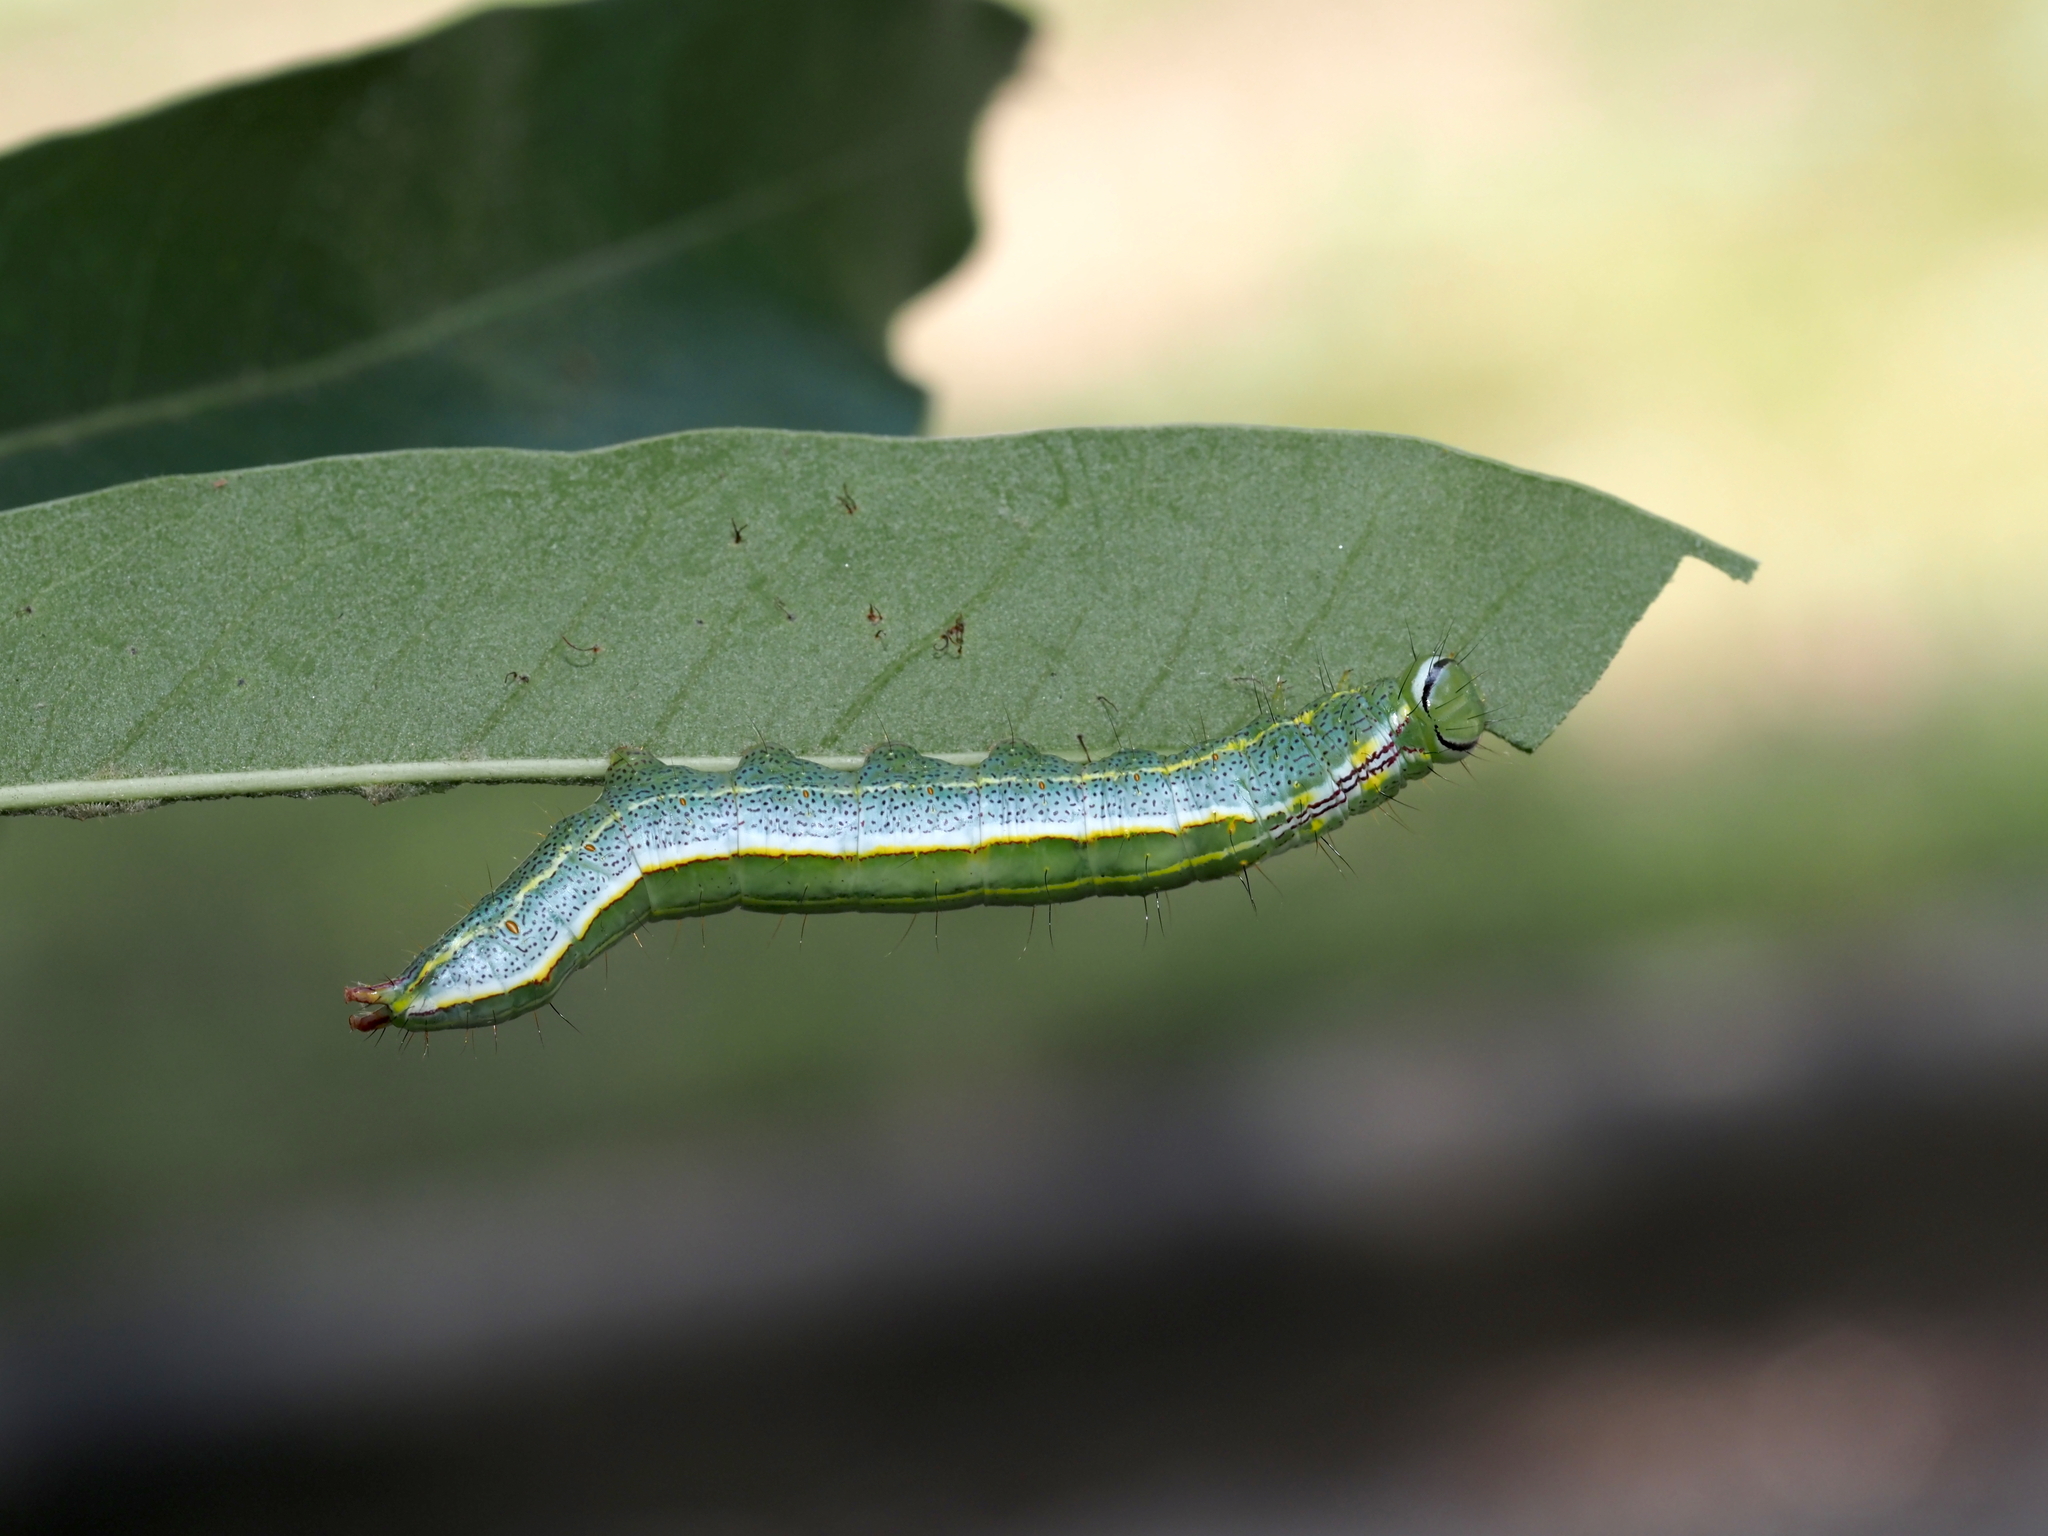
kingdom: Animalia
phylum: Arthropoda
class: Insecta
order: Lepidoptera
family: Notodontidae
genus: Lochmaeus
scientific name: Lochmaeus manteo
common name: Variable oakleaf caterpillar moth
